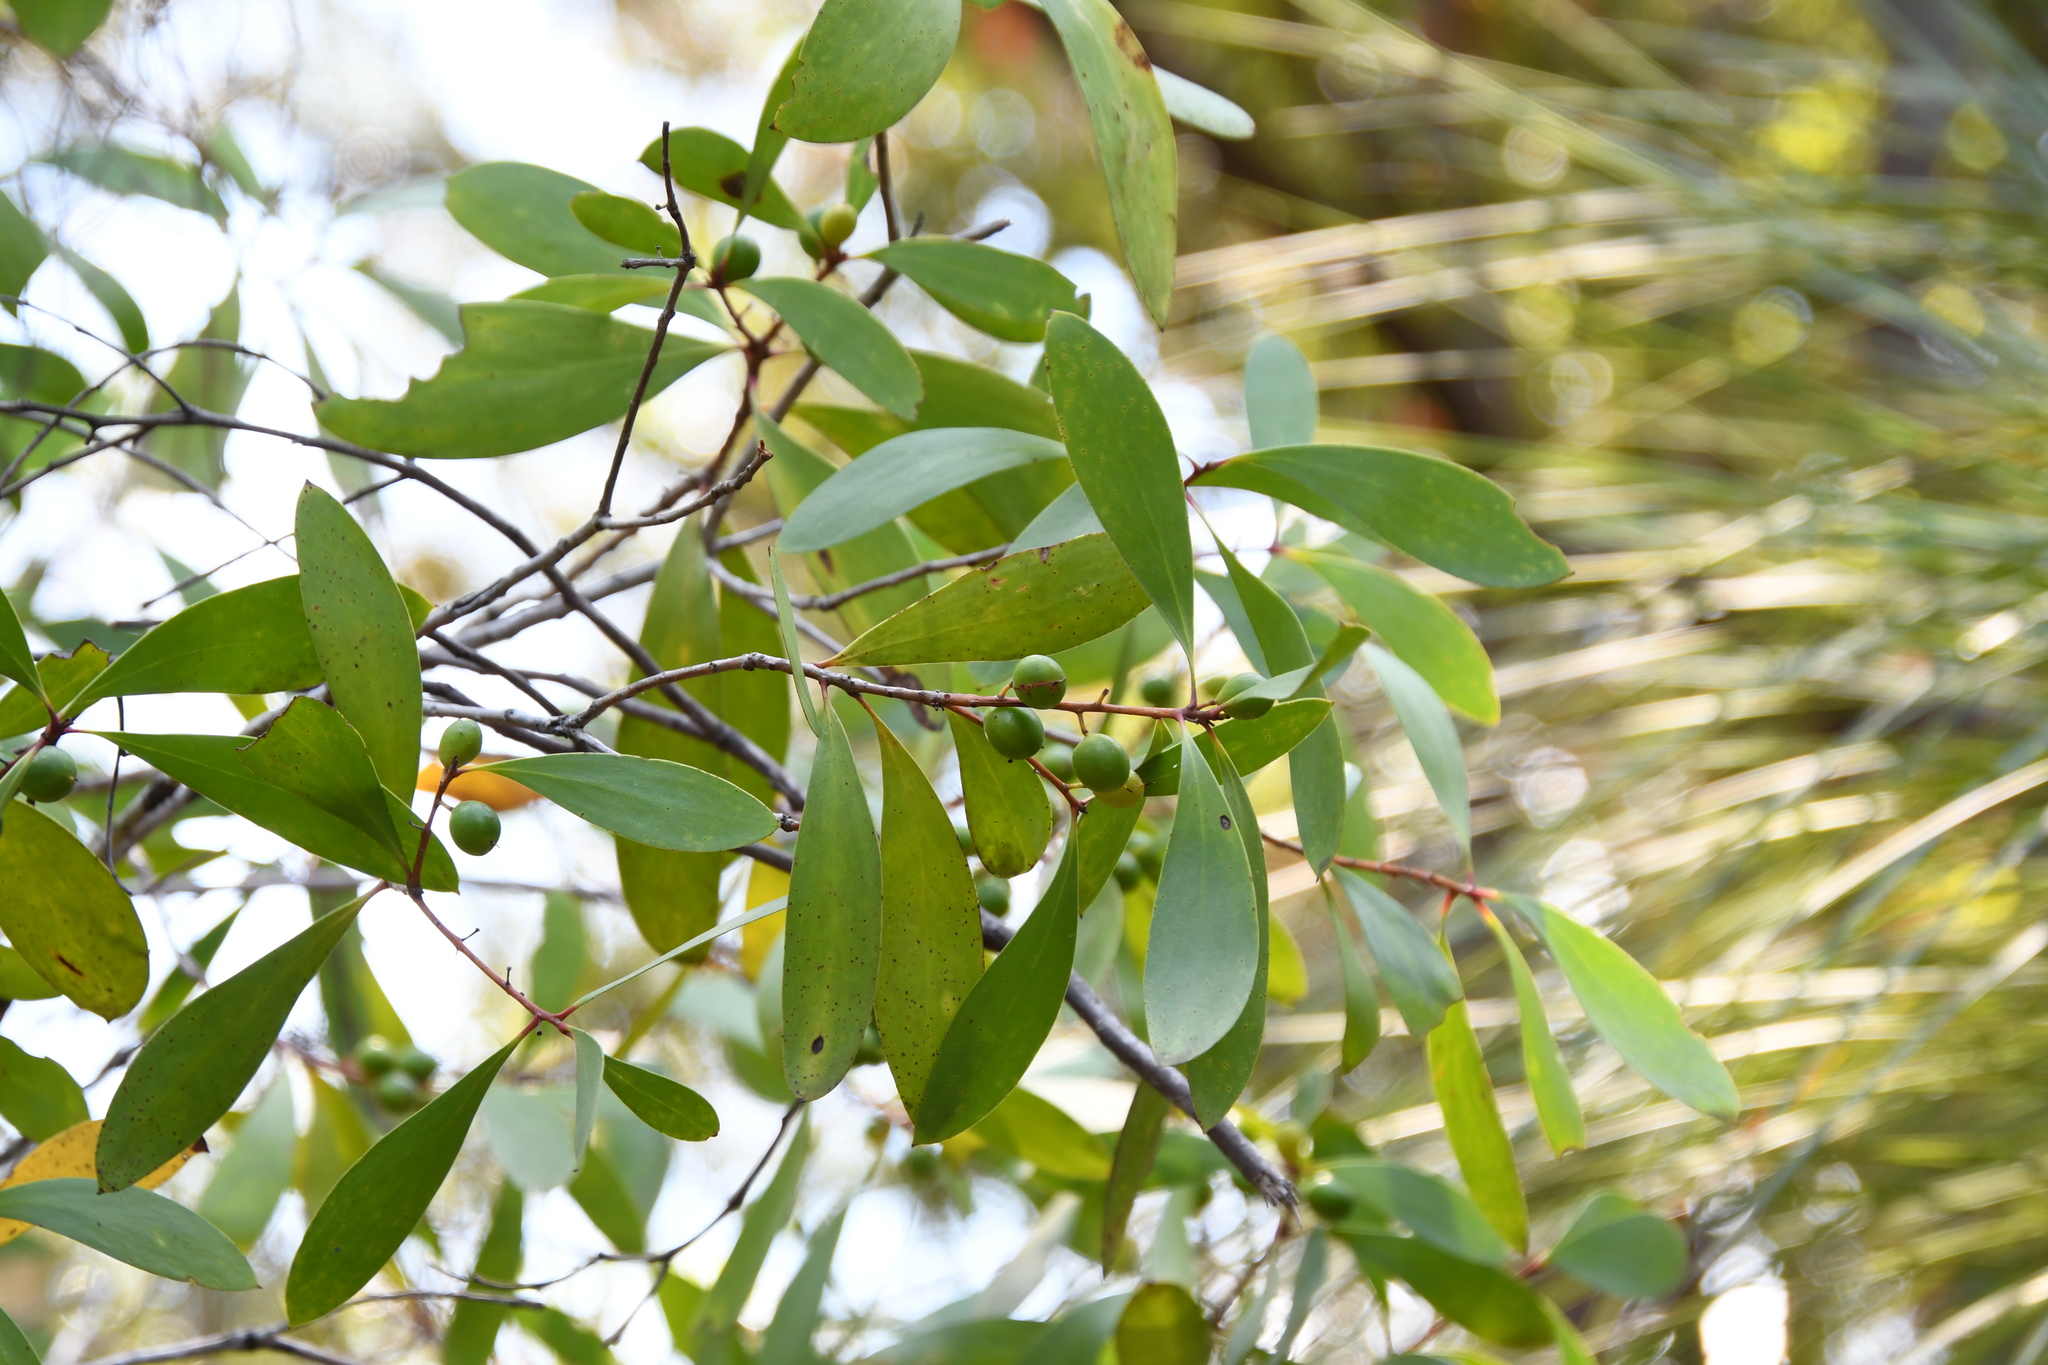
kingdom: Plantae
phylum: Tracheophyta
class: Magnoliopsida
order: Proteales
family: Proteaceae
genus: Persoonia
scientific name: Persoonia levis
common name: Smooth geebung
